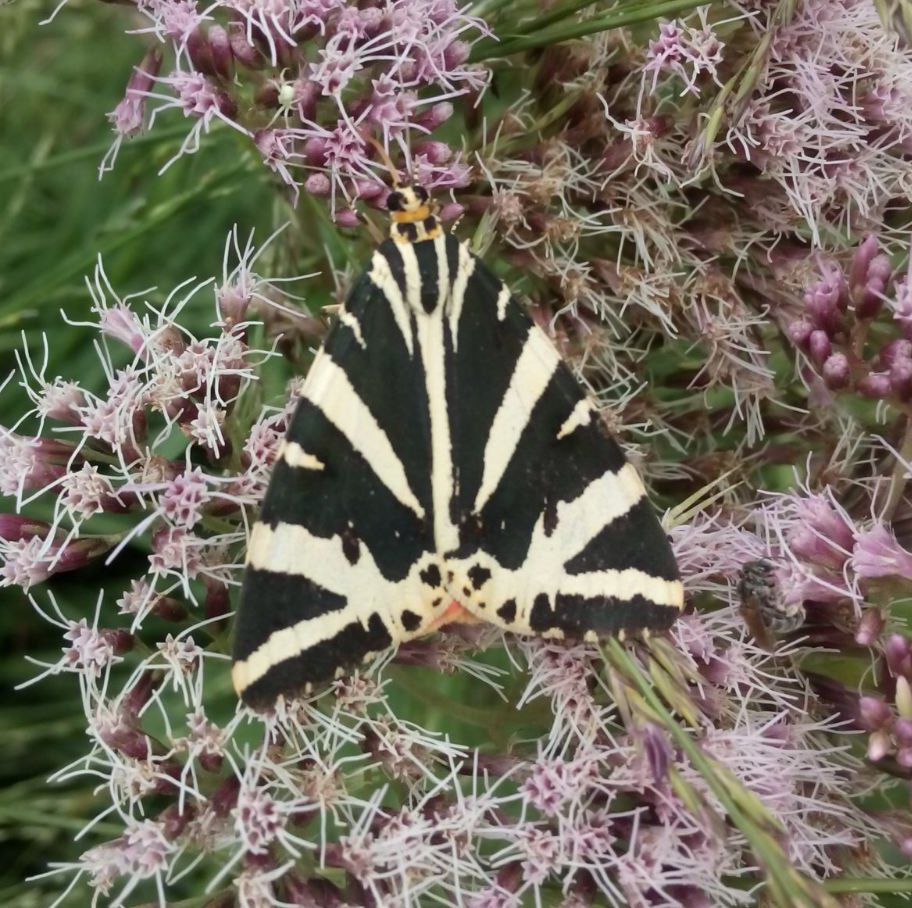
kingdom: Animalia
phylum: Arthropoda
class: Insecta
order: Lepidoptera
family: Erebidae
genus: Euplagia
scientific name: Euplagia quadripunctaria
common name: Jersey tiger
